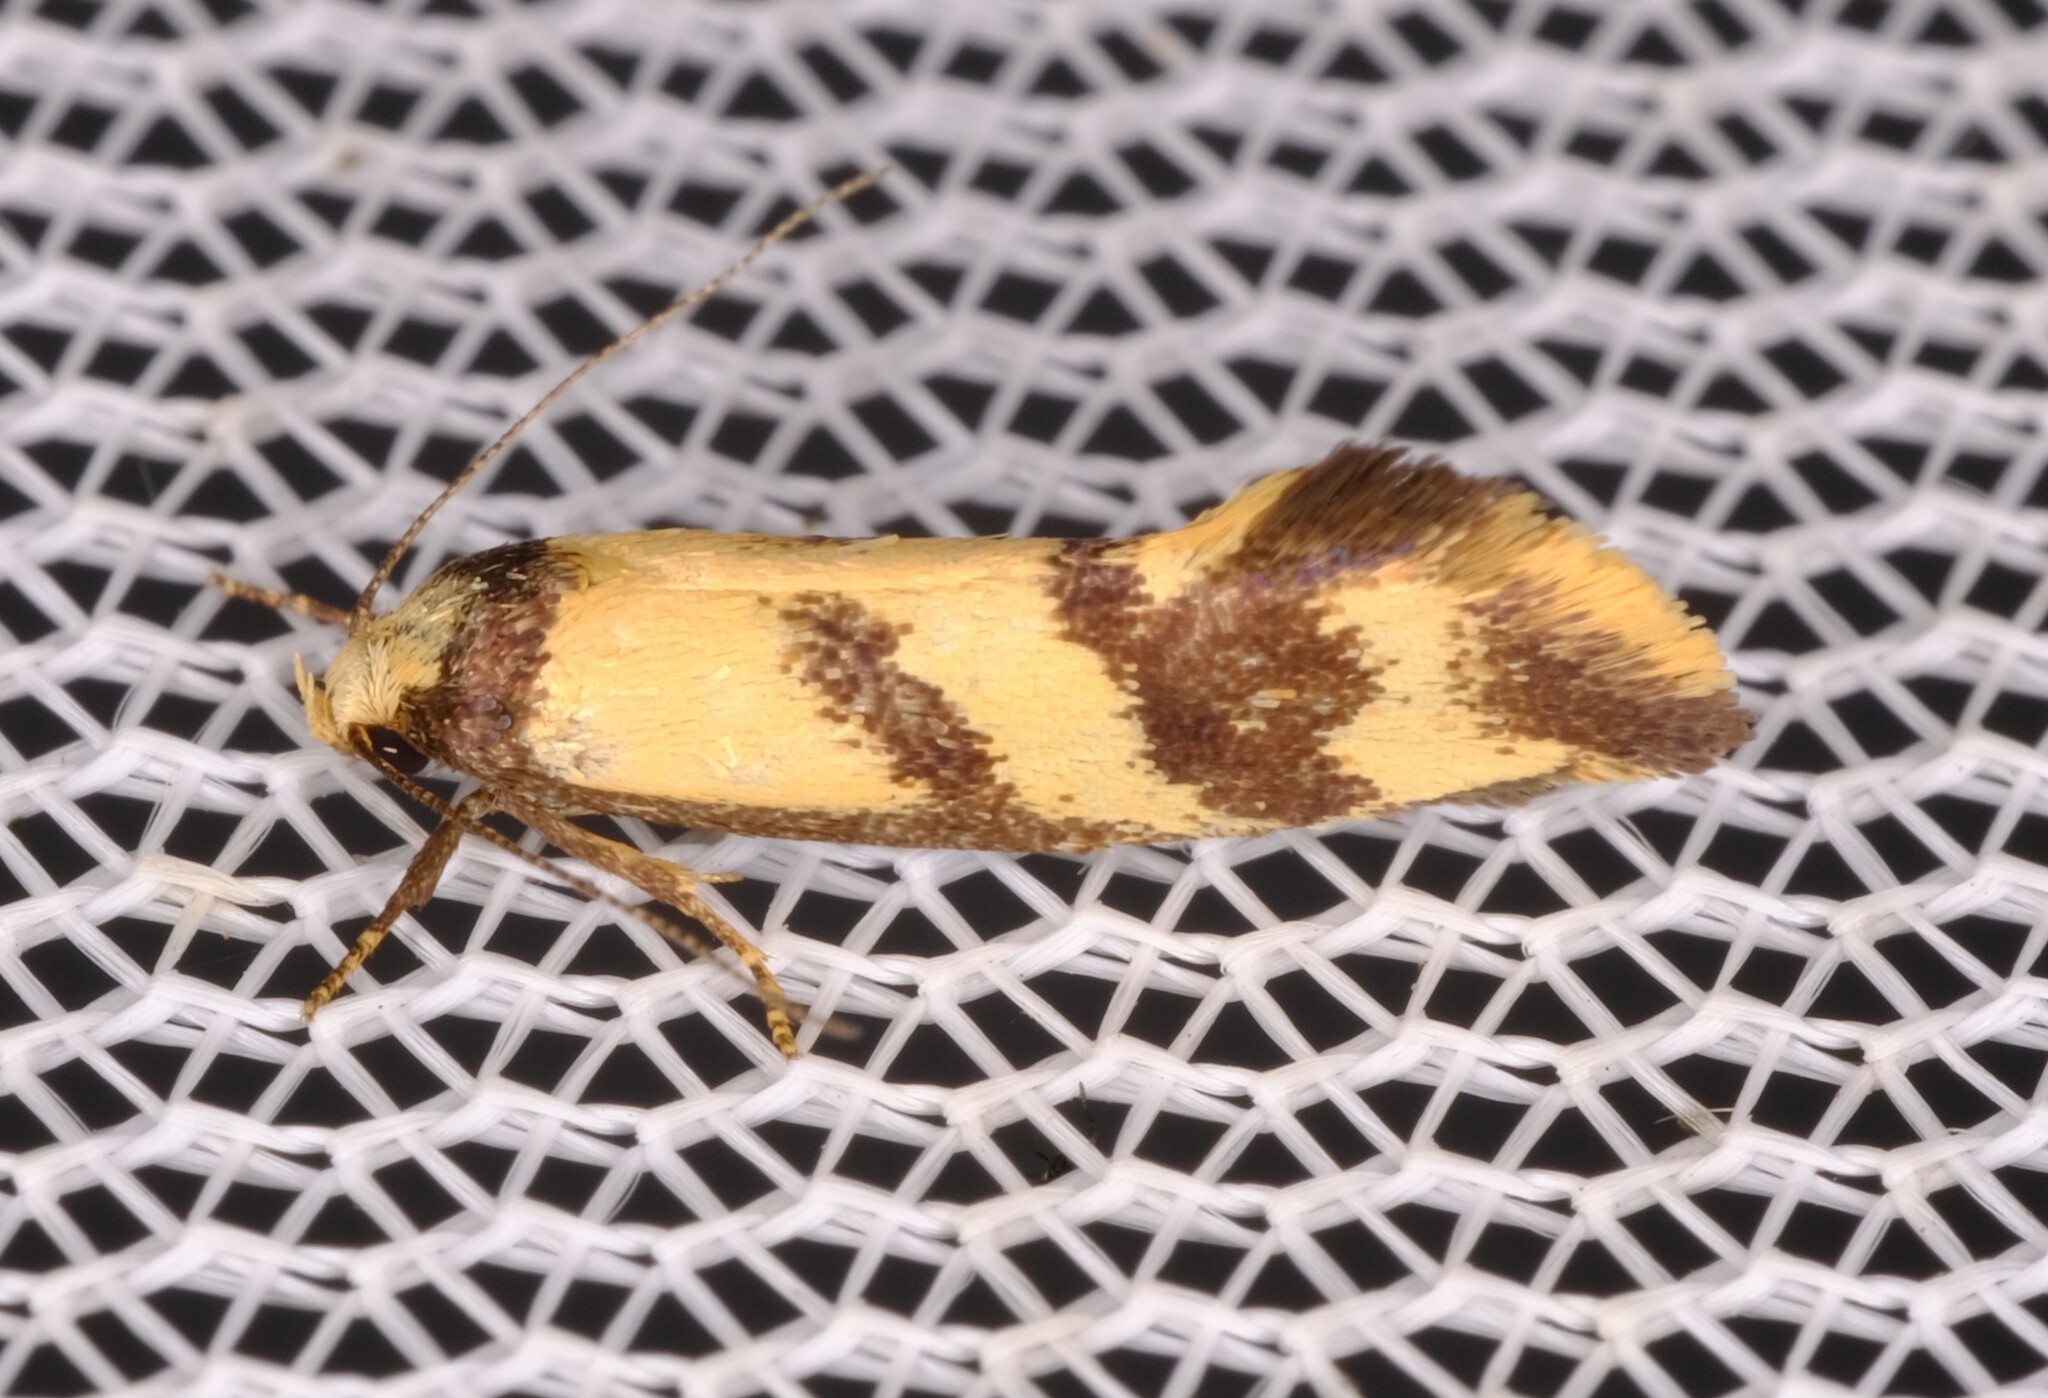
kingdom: Animalia
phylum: Arthropoda
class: Insecta
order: Lepidoptera
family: Oecophoridae
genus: Olbonoma
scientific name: Olbonoma triptycha
